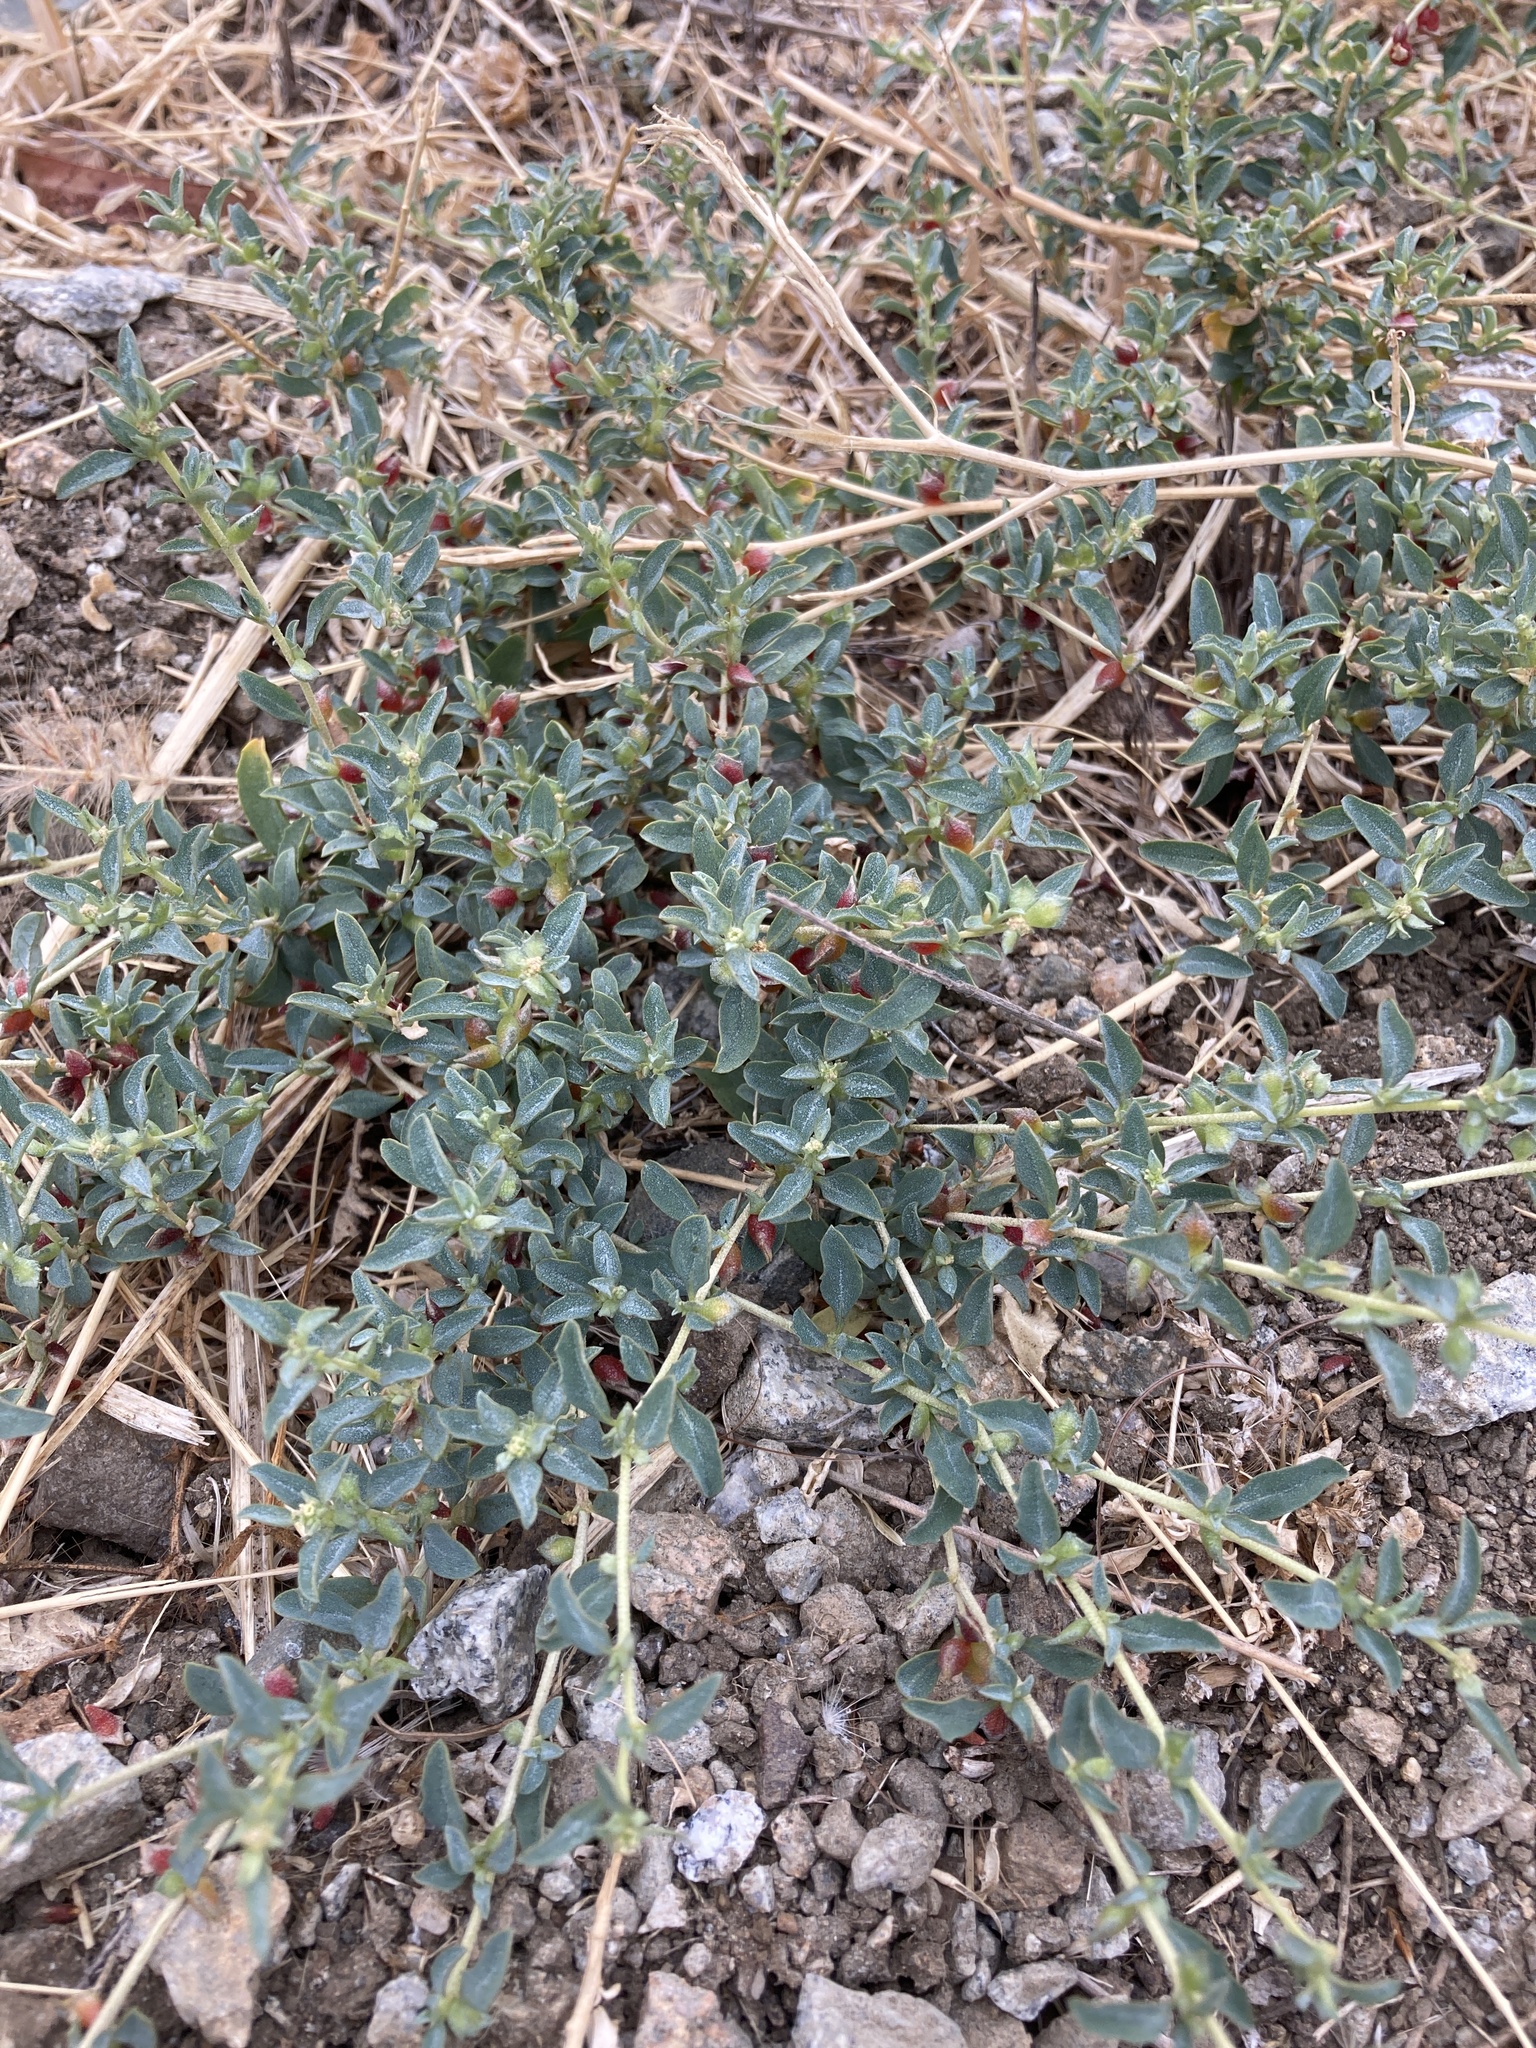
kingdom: Plantae
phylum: Tracheophyta
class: Magnoliopsida
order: Caryophyllales
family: Amaranthaceae
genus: Atriplex
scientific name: Atriplex semibaccata
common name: Australian saltbush
